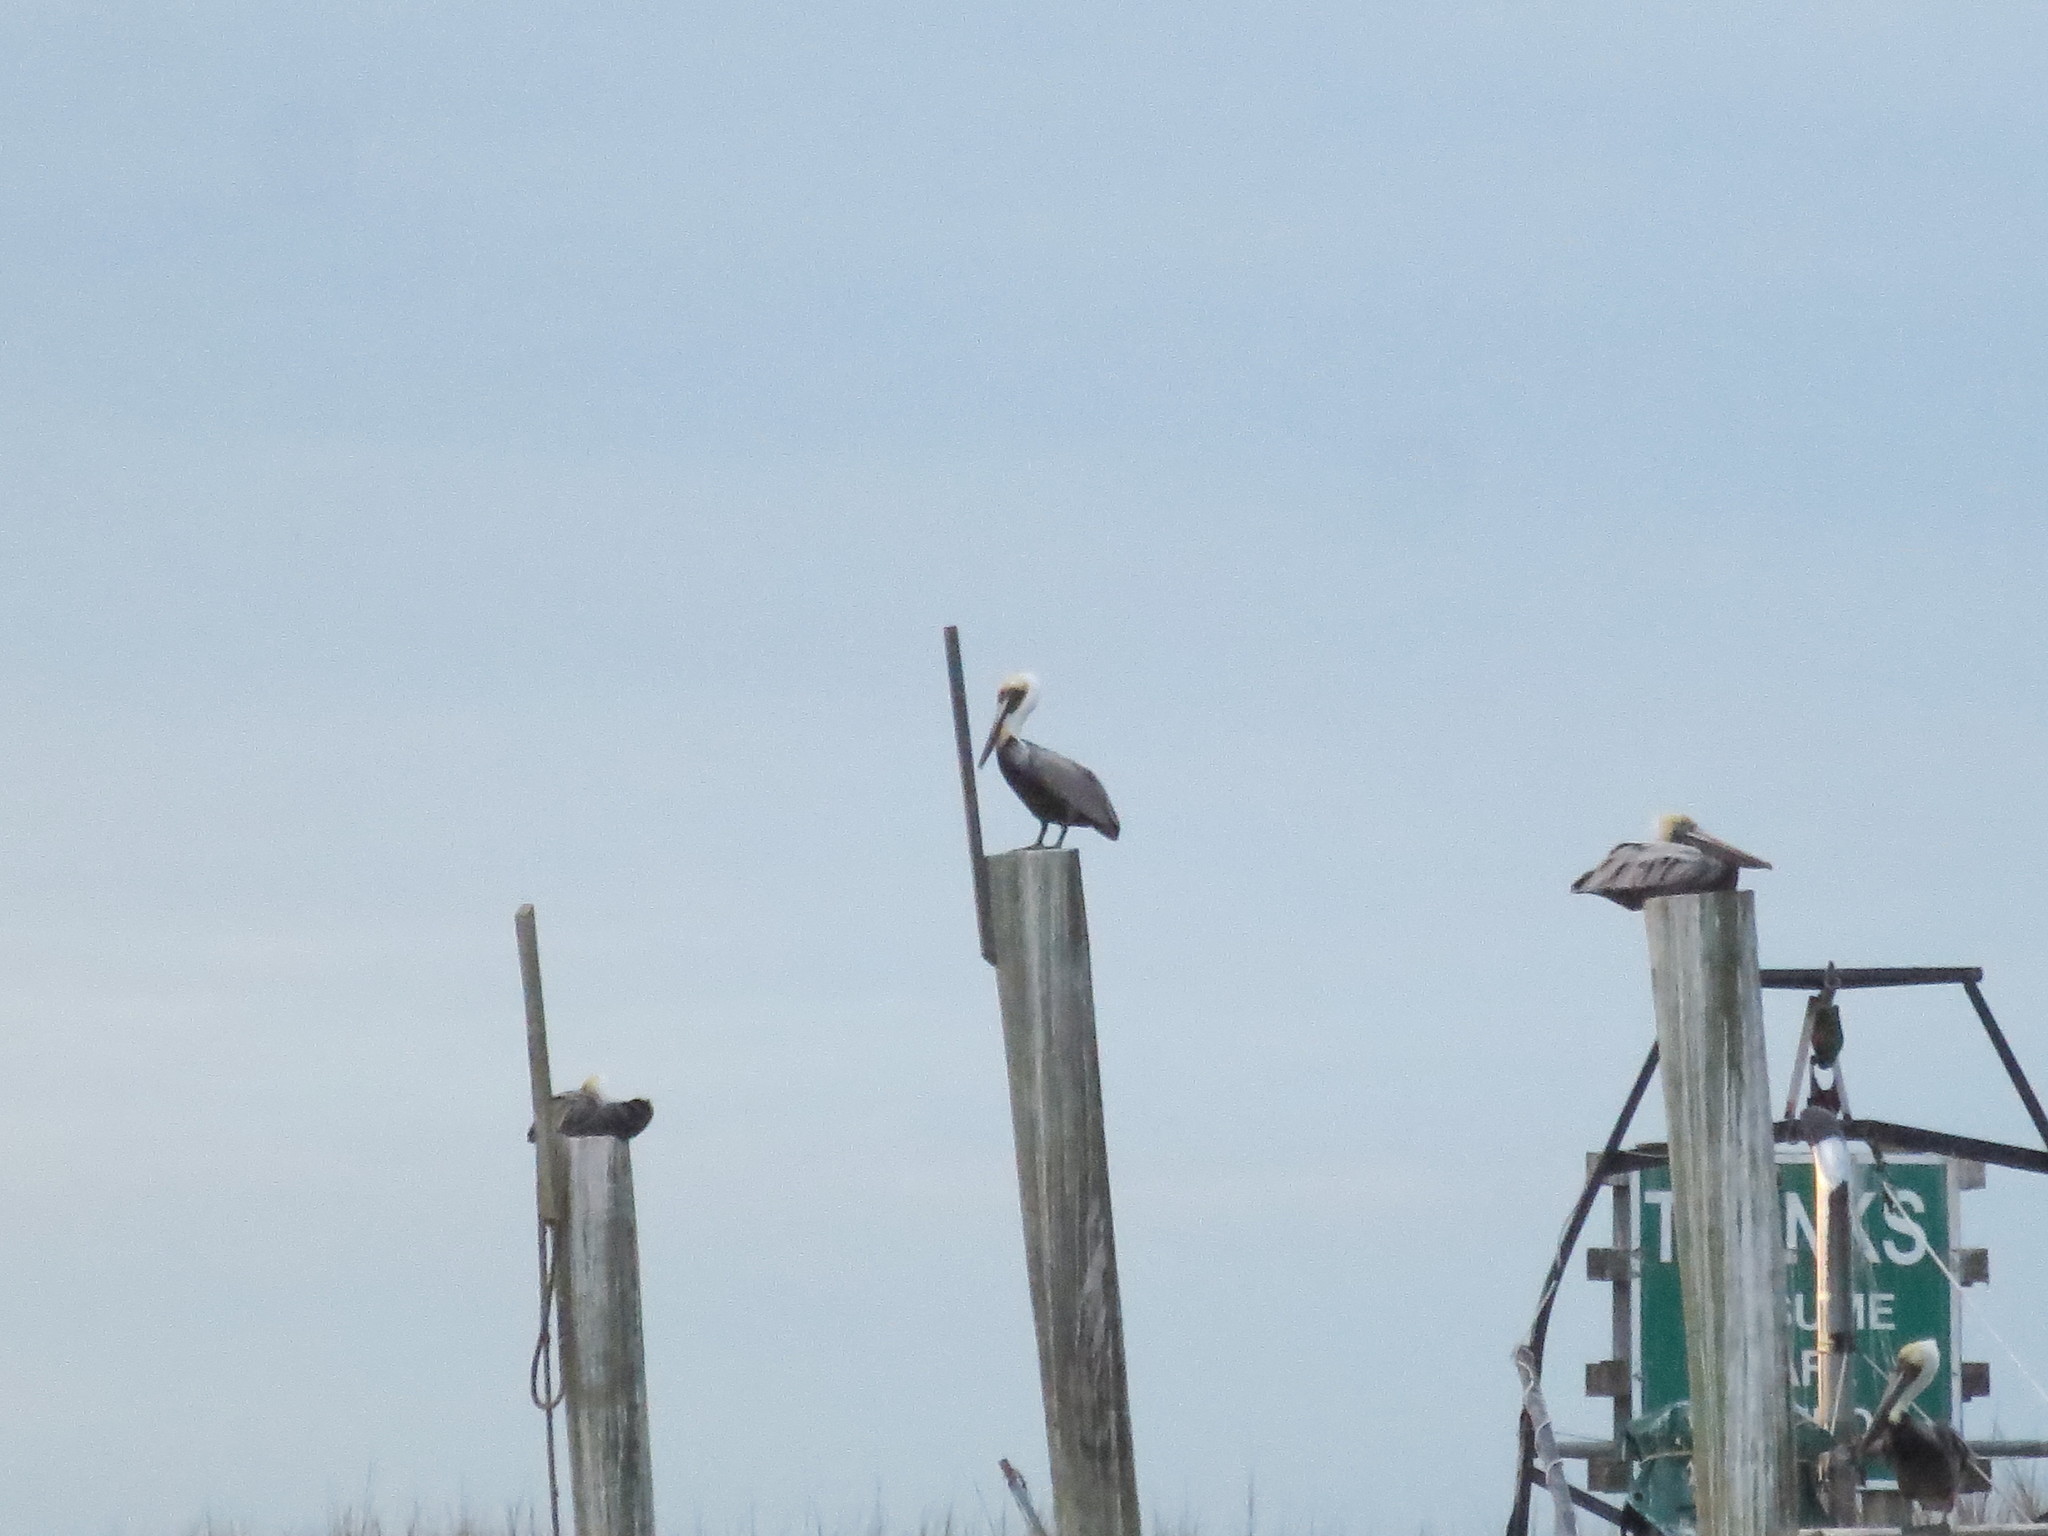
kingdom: Animalia
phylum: Chordata
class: Aves
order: Pelecaniformes
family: Pelecanidae
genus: Pelecanus
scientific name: Pelecanus occidentalis
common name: Brown pelican
